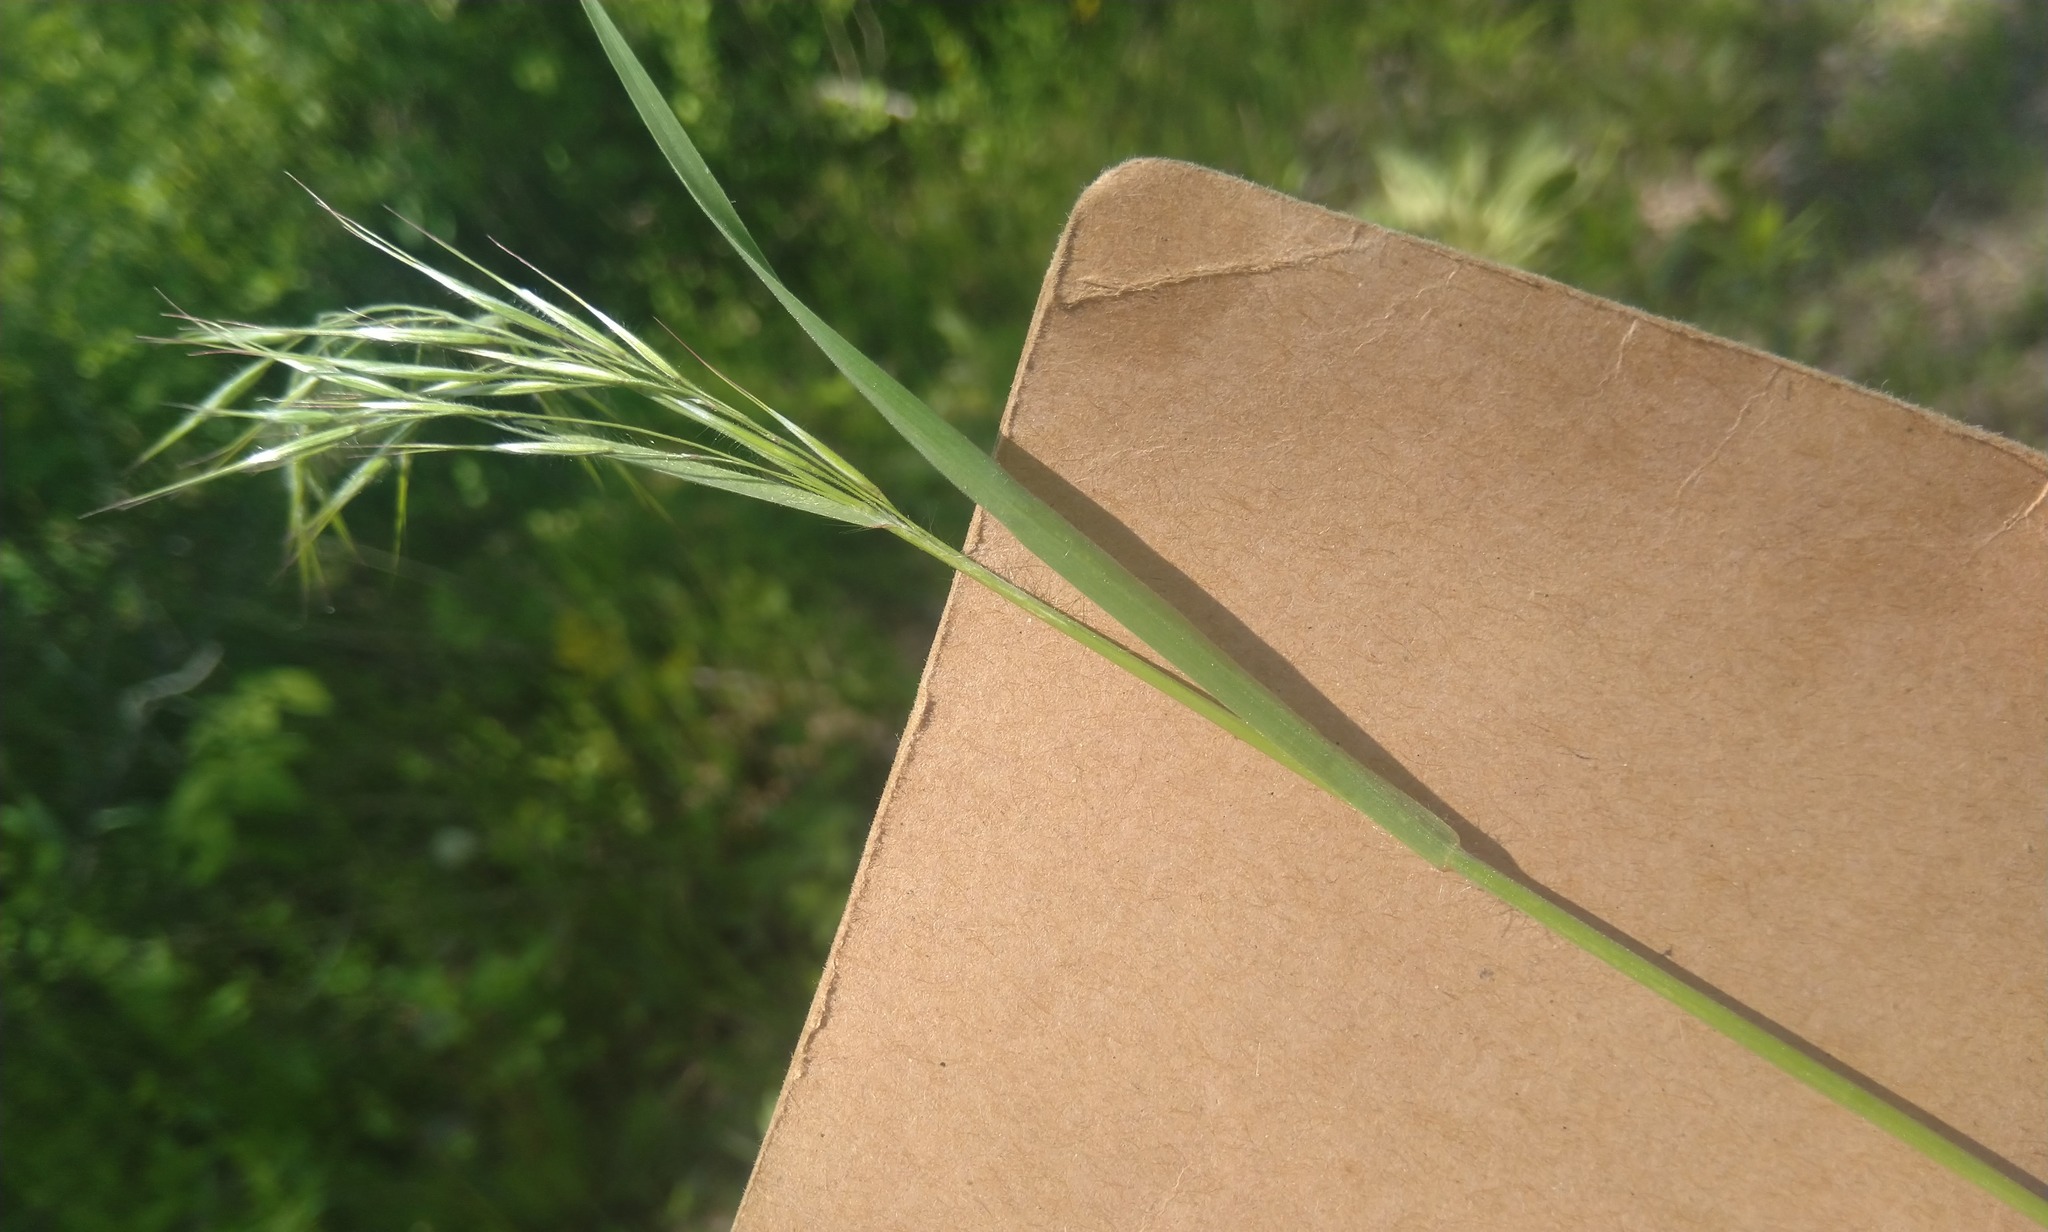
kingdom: Plantae
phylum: Tracheophyta
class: Liliopsida
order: Poales
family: Poaceae
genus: Bromus
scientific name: Bromus tectorum
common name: Cheatgrass
